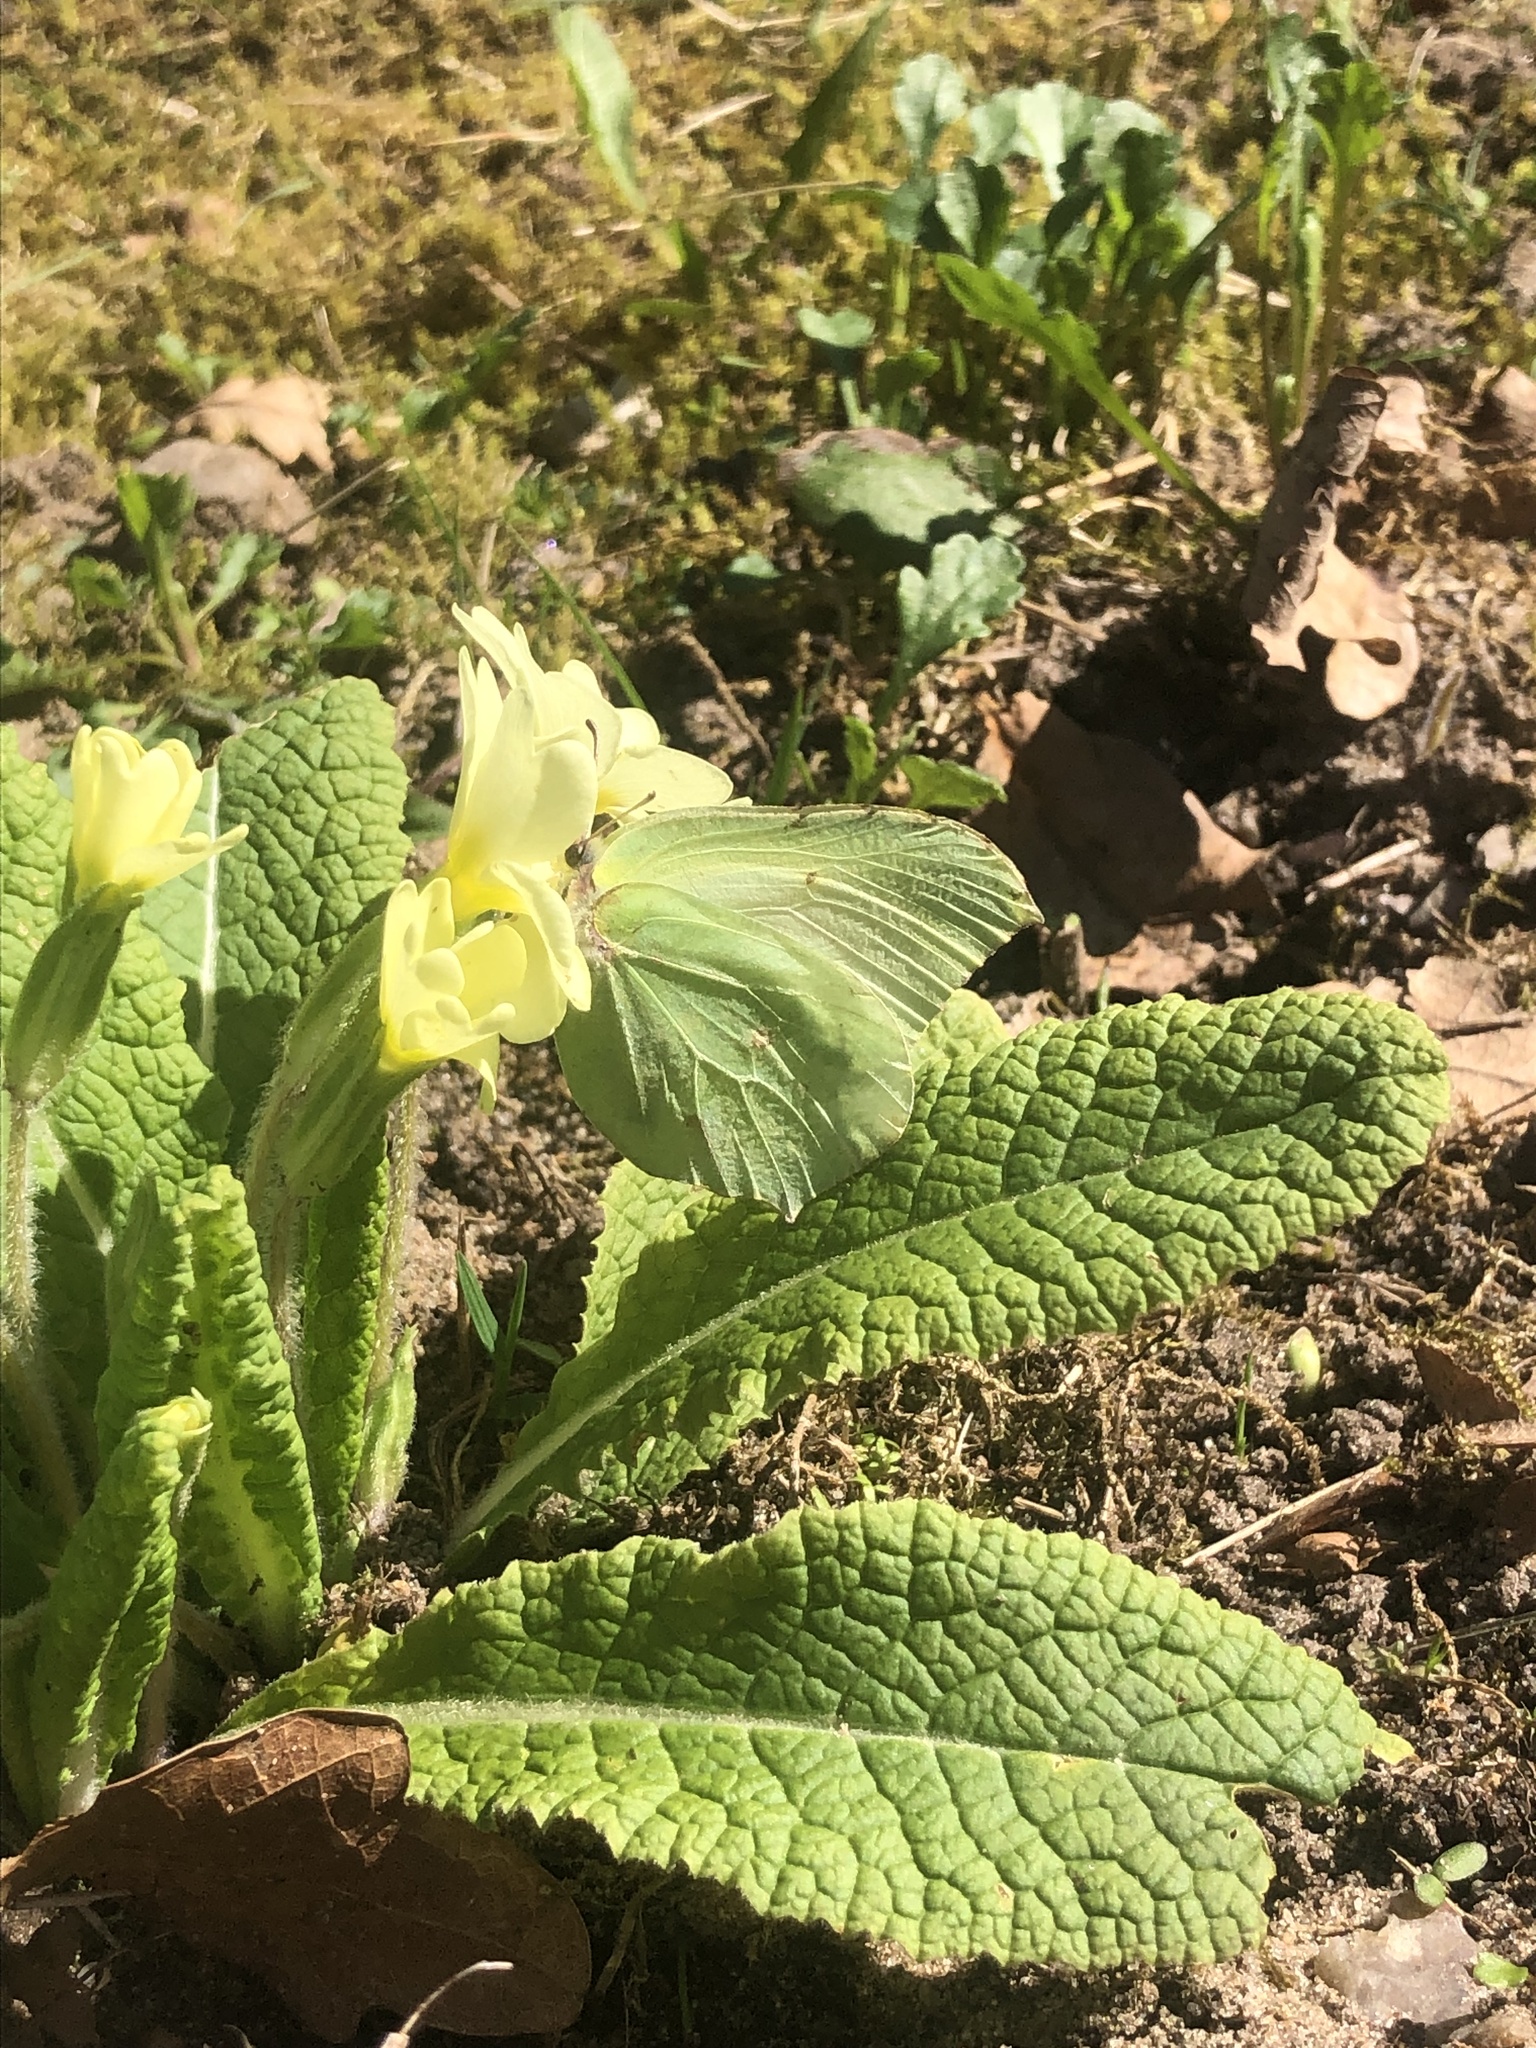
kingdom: Animalia
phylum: Arthropoda
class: Insecta
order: Lepidoptera
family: Pieridae
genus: Gonepteryx
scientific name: Gonepteryx rhamni
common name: Brimstone
